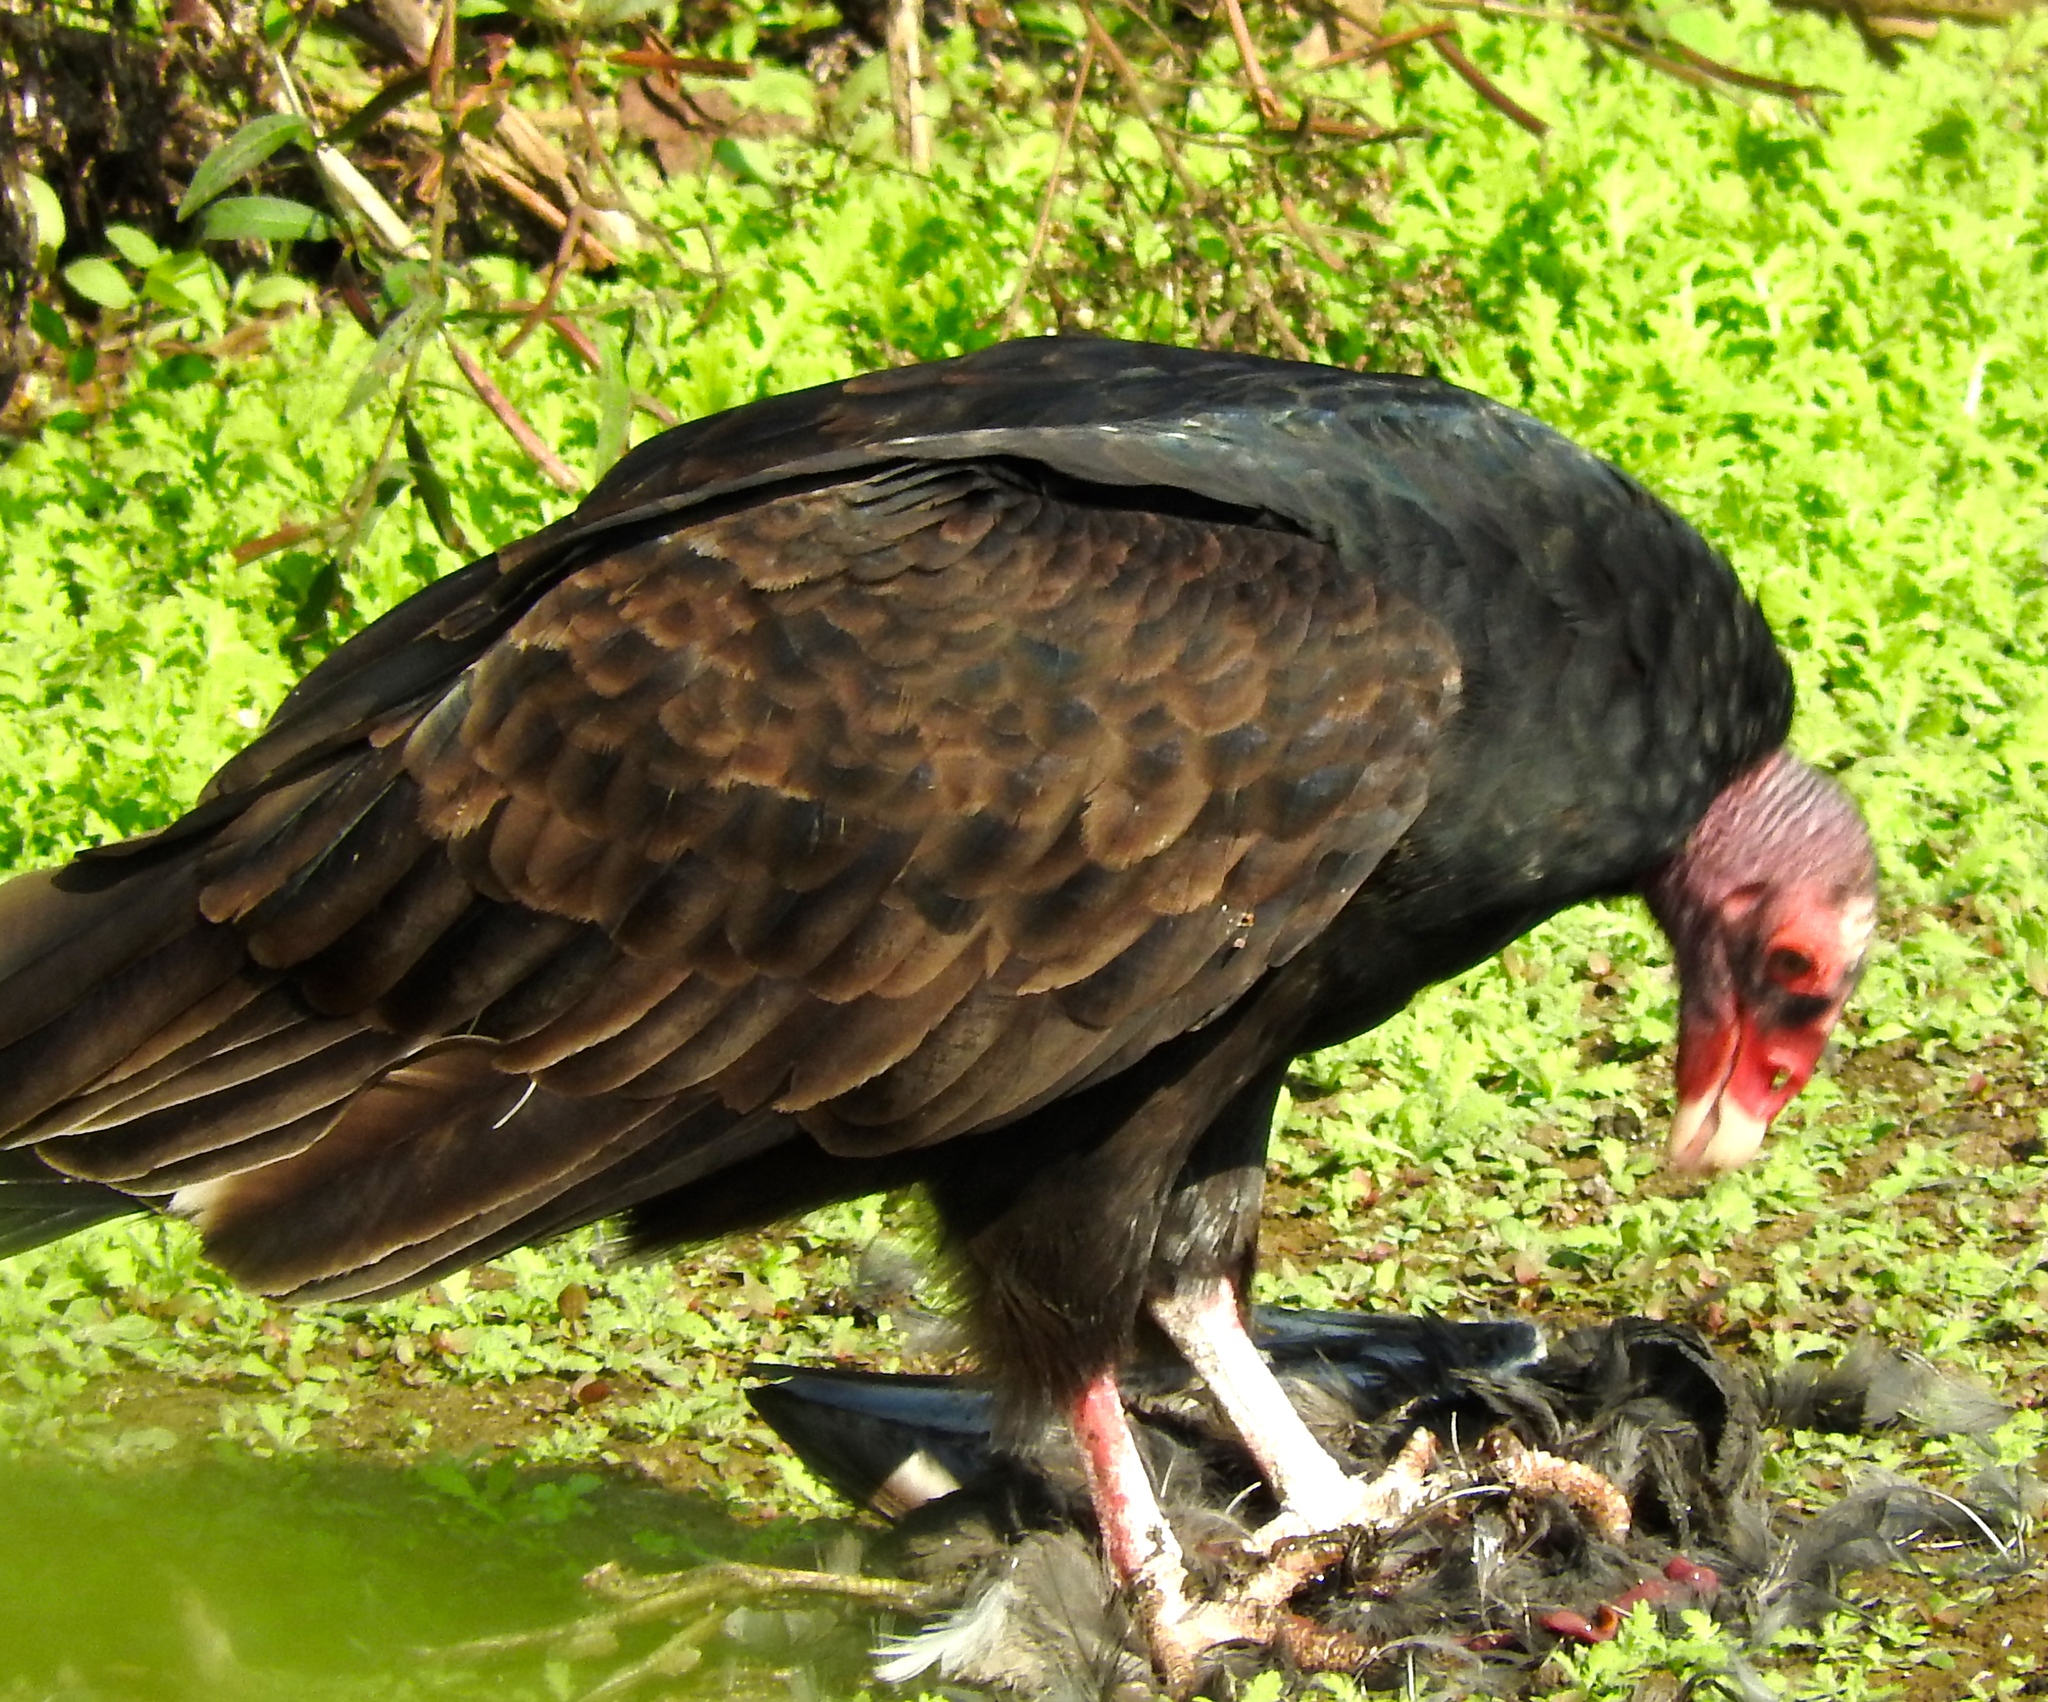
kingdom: Animalia
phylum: Chordata
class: Aves
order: Accipitriformes
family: Cathartidae
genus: Cathartes
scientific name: Cathartes aura
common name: Turkey vulture
